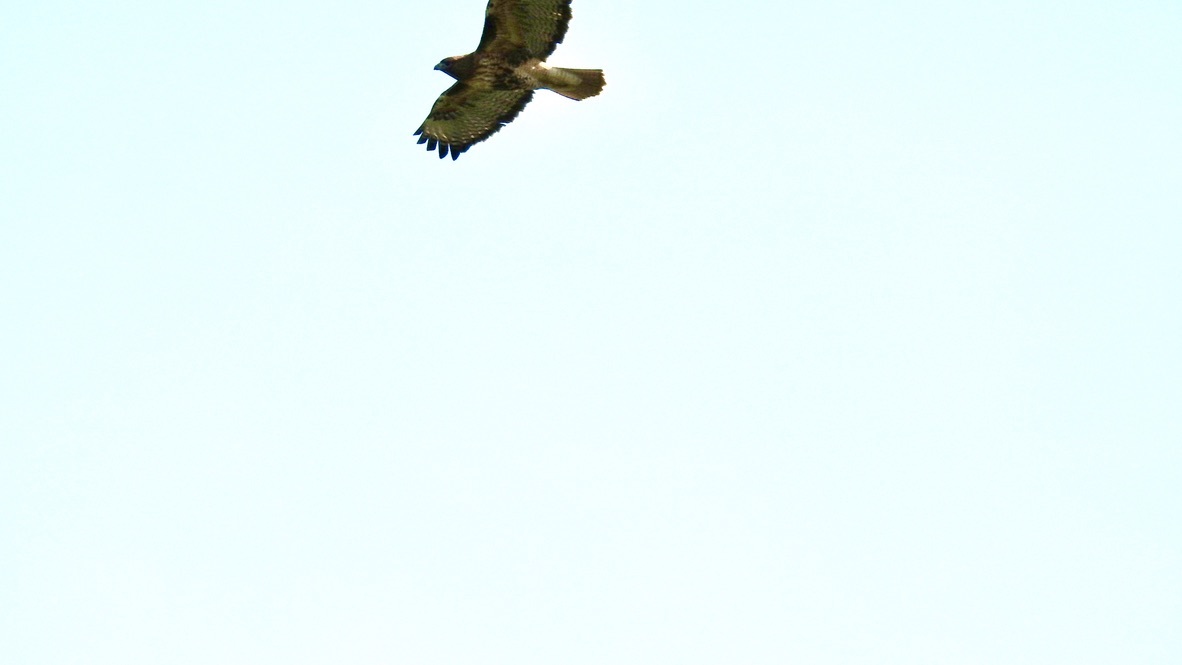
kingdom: Animalia
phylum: Chordata
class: Aves
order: Accipitriformes
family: Accipitridae
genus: Buteo
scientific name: Buteo jamaicensis
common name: Red-tailed hawk
